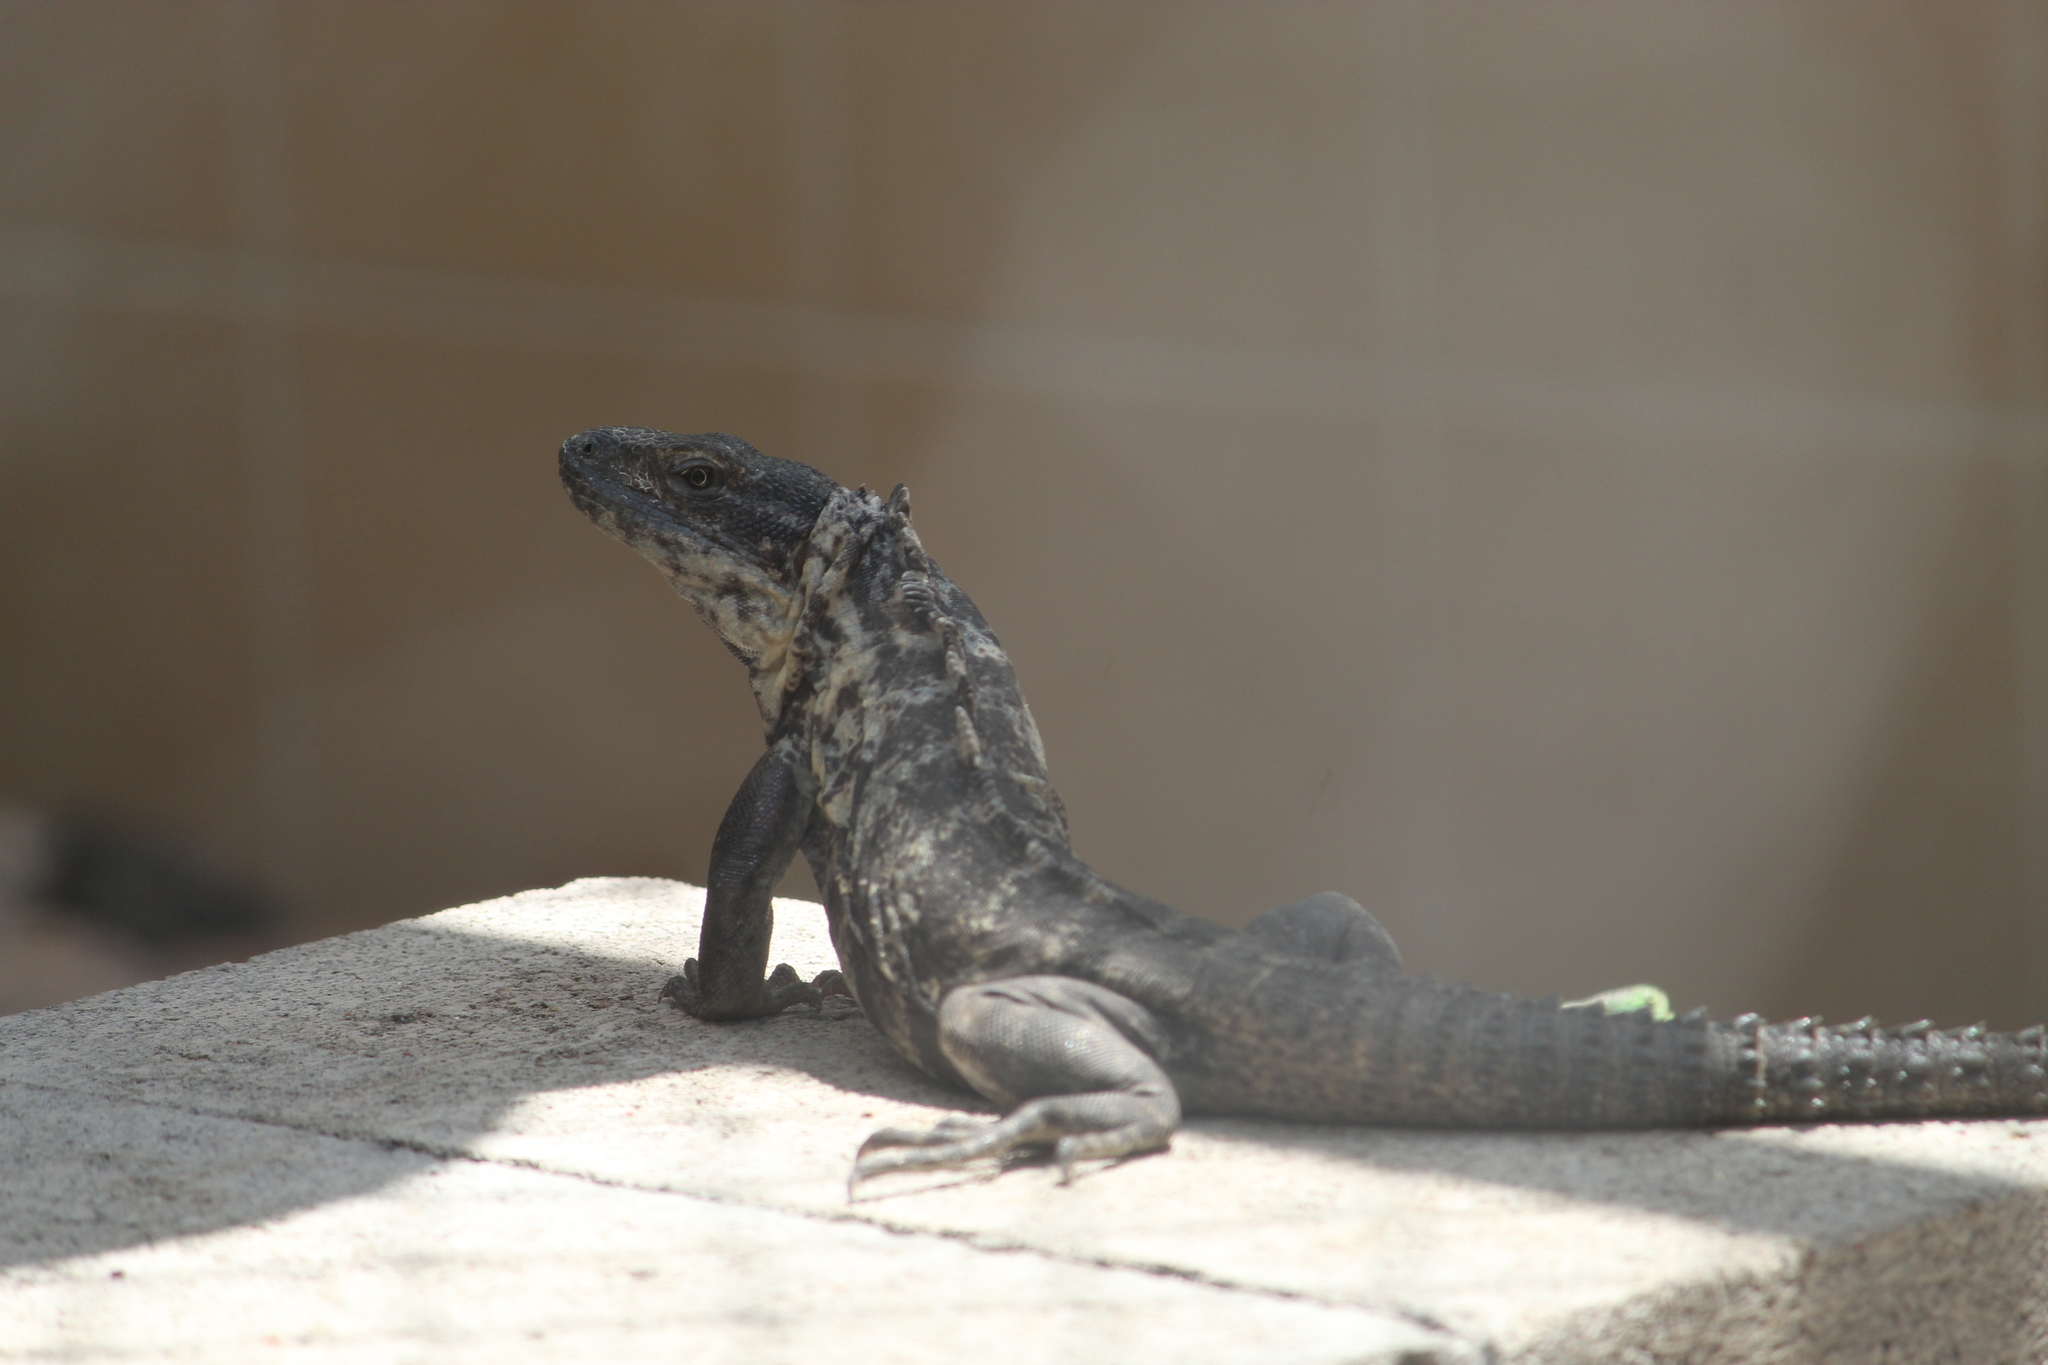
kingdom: Animalia
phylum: Chordata
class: Squamata
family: Iguanidae
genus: Ctenosaura
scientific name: Ctenosaura pectinata
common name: Guerreran spiny-tailed iguana
